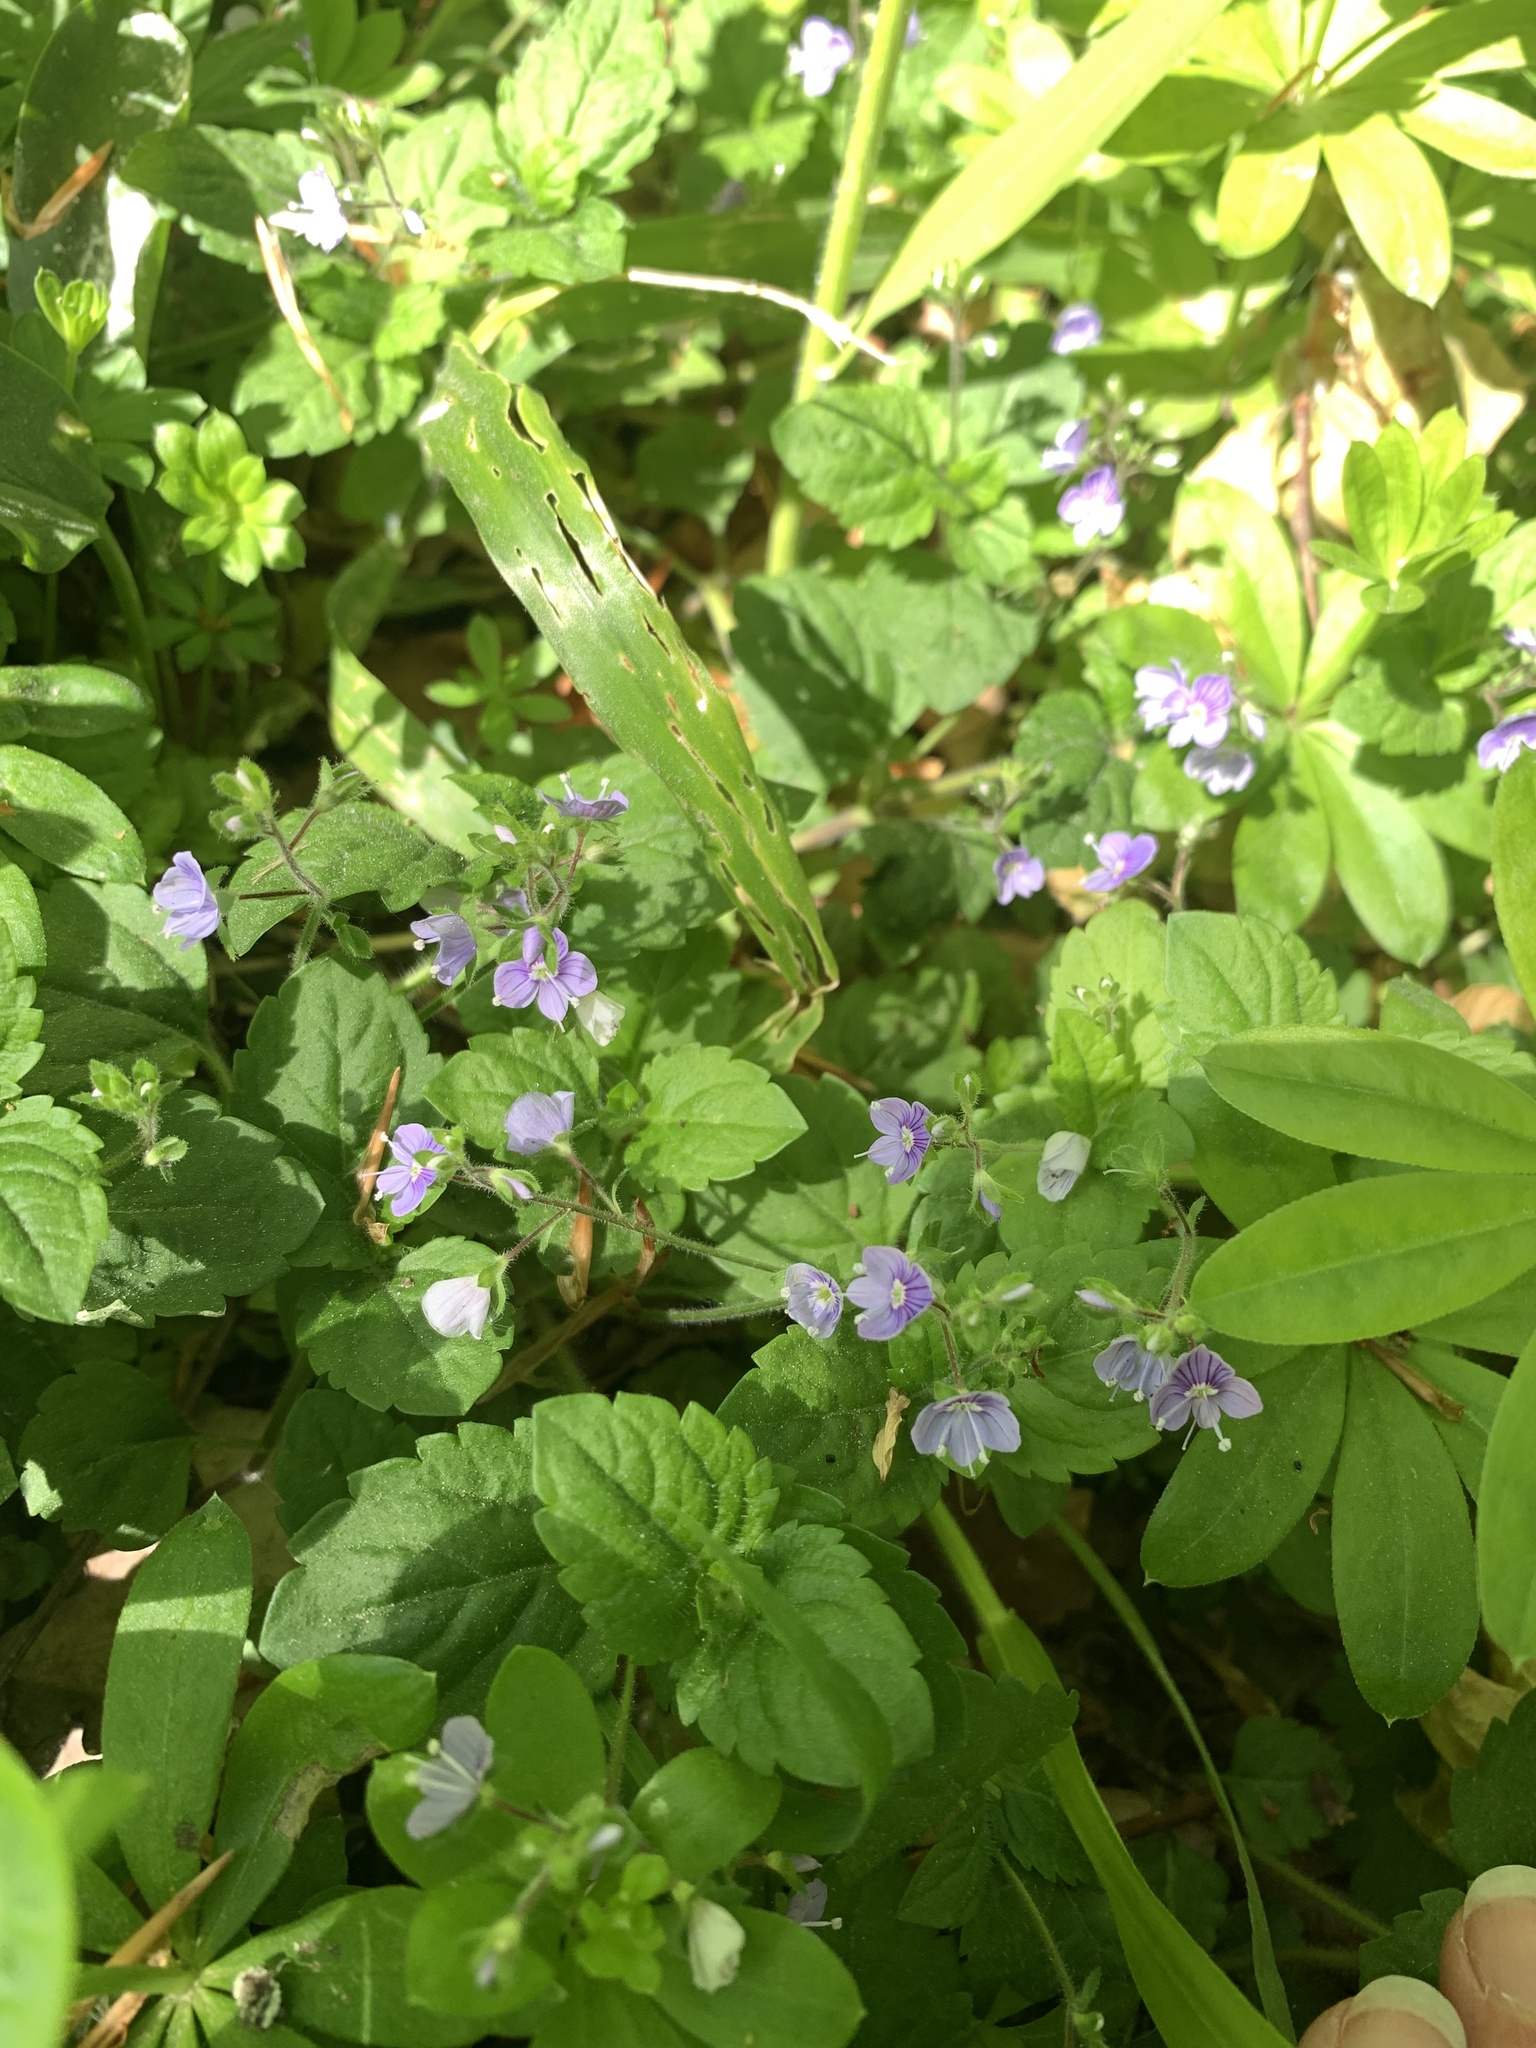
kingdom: Plantae
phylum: Tracheophyta
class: Magnoliopsida
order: Lamiales
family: Plantaginaceae
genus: Veronica
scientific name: Veronica montana
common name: Wood speedwell
